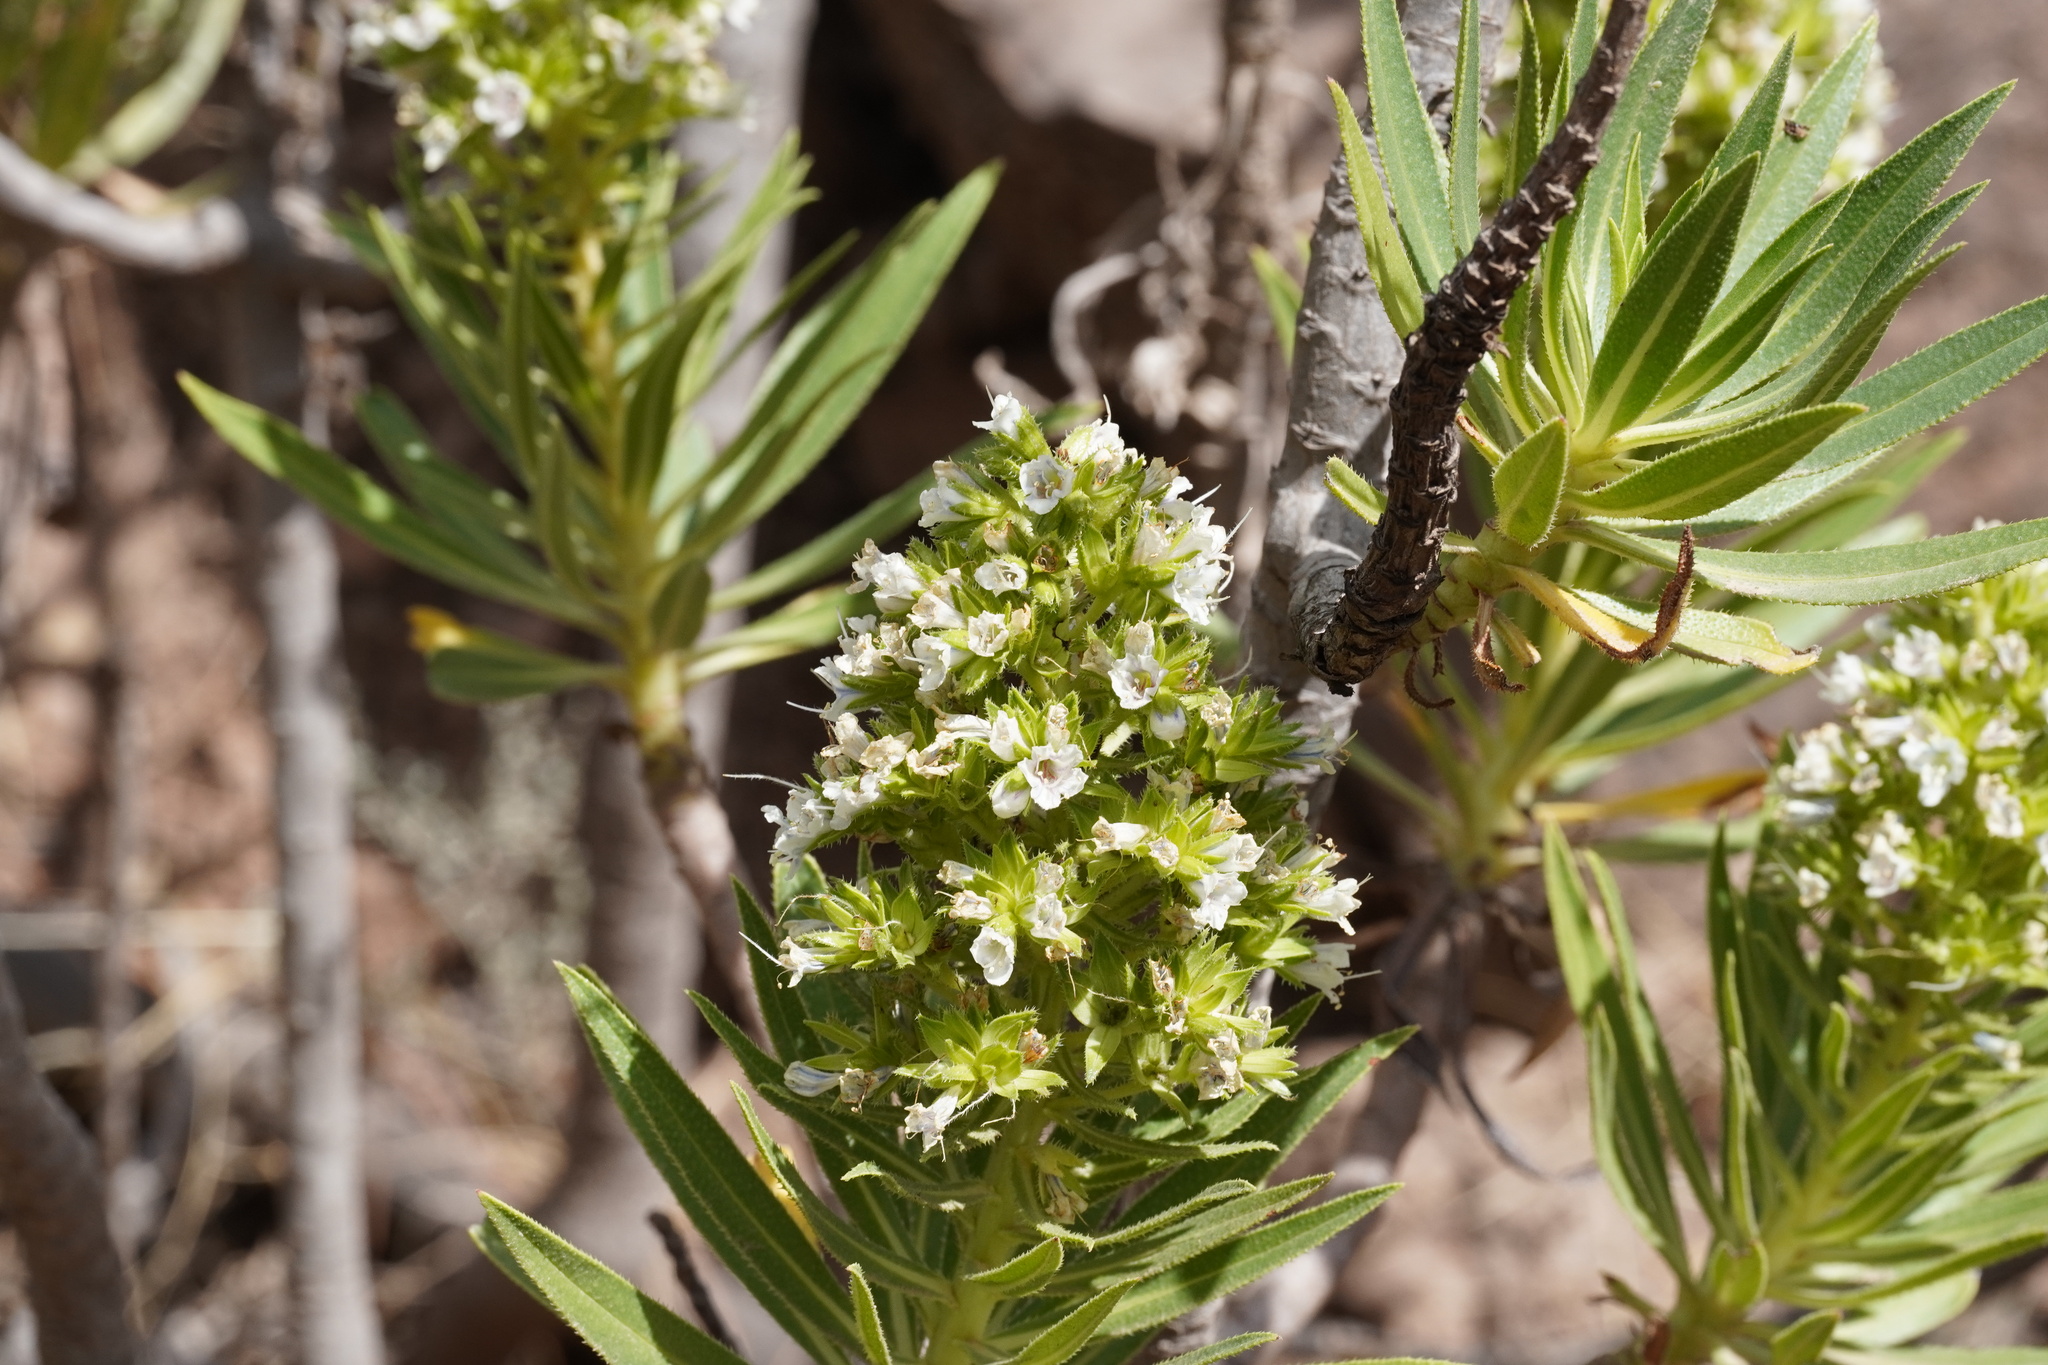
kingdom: Plantae
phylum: Tracheophyta
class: Magnoliopsida
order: Boraginales
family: Boraginaceae
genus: Echium
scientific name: Echium decaisnei
